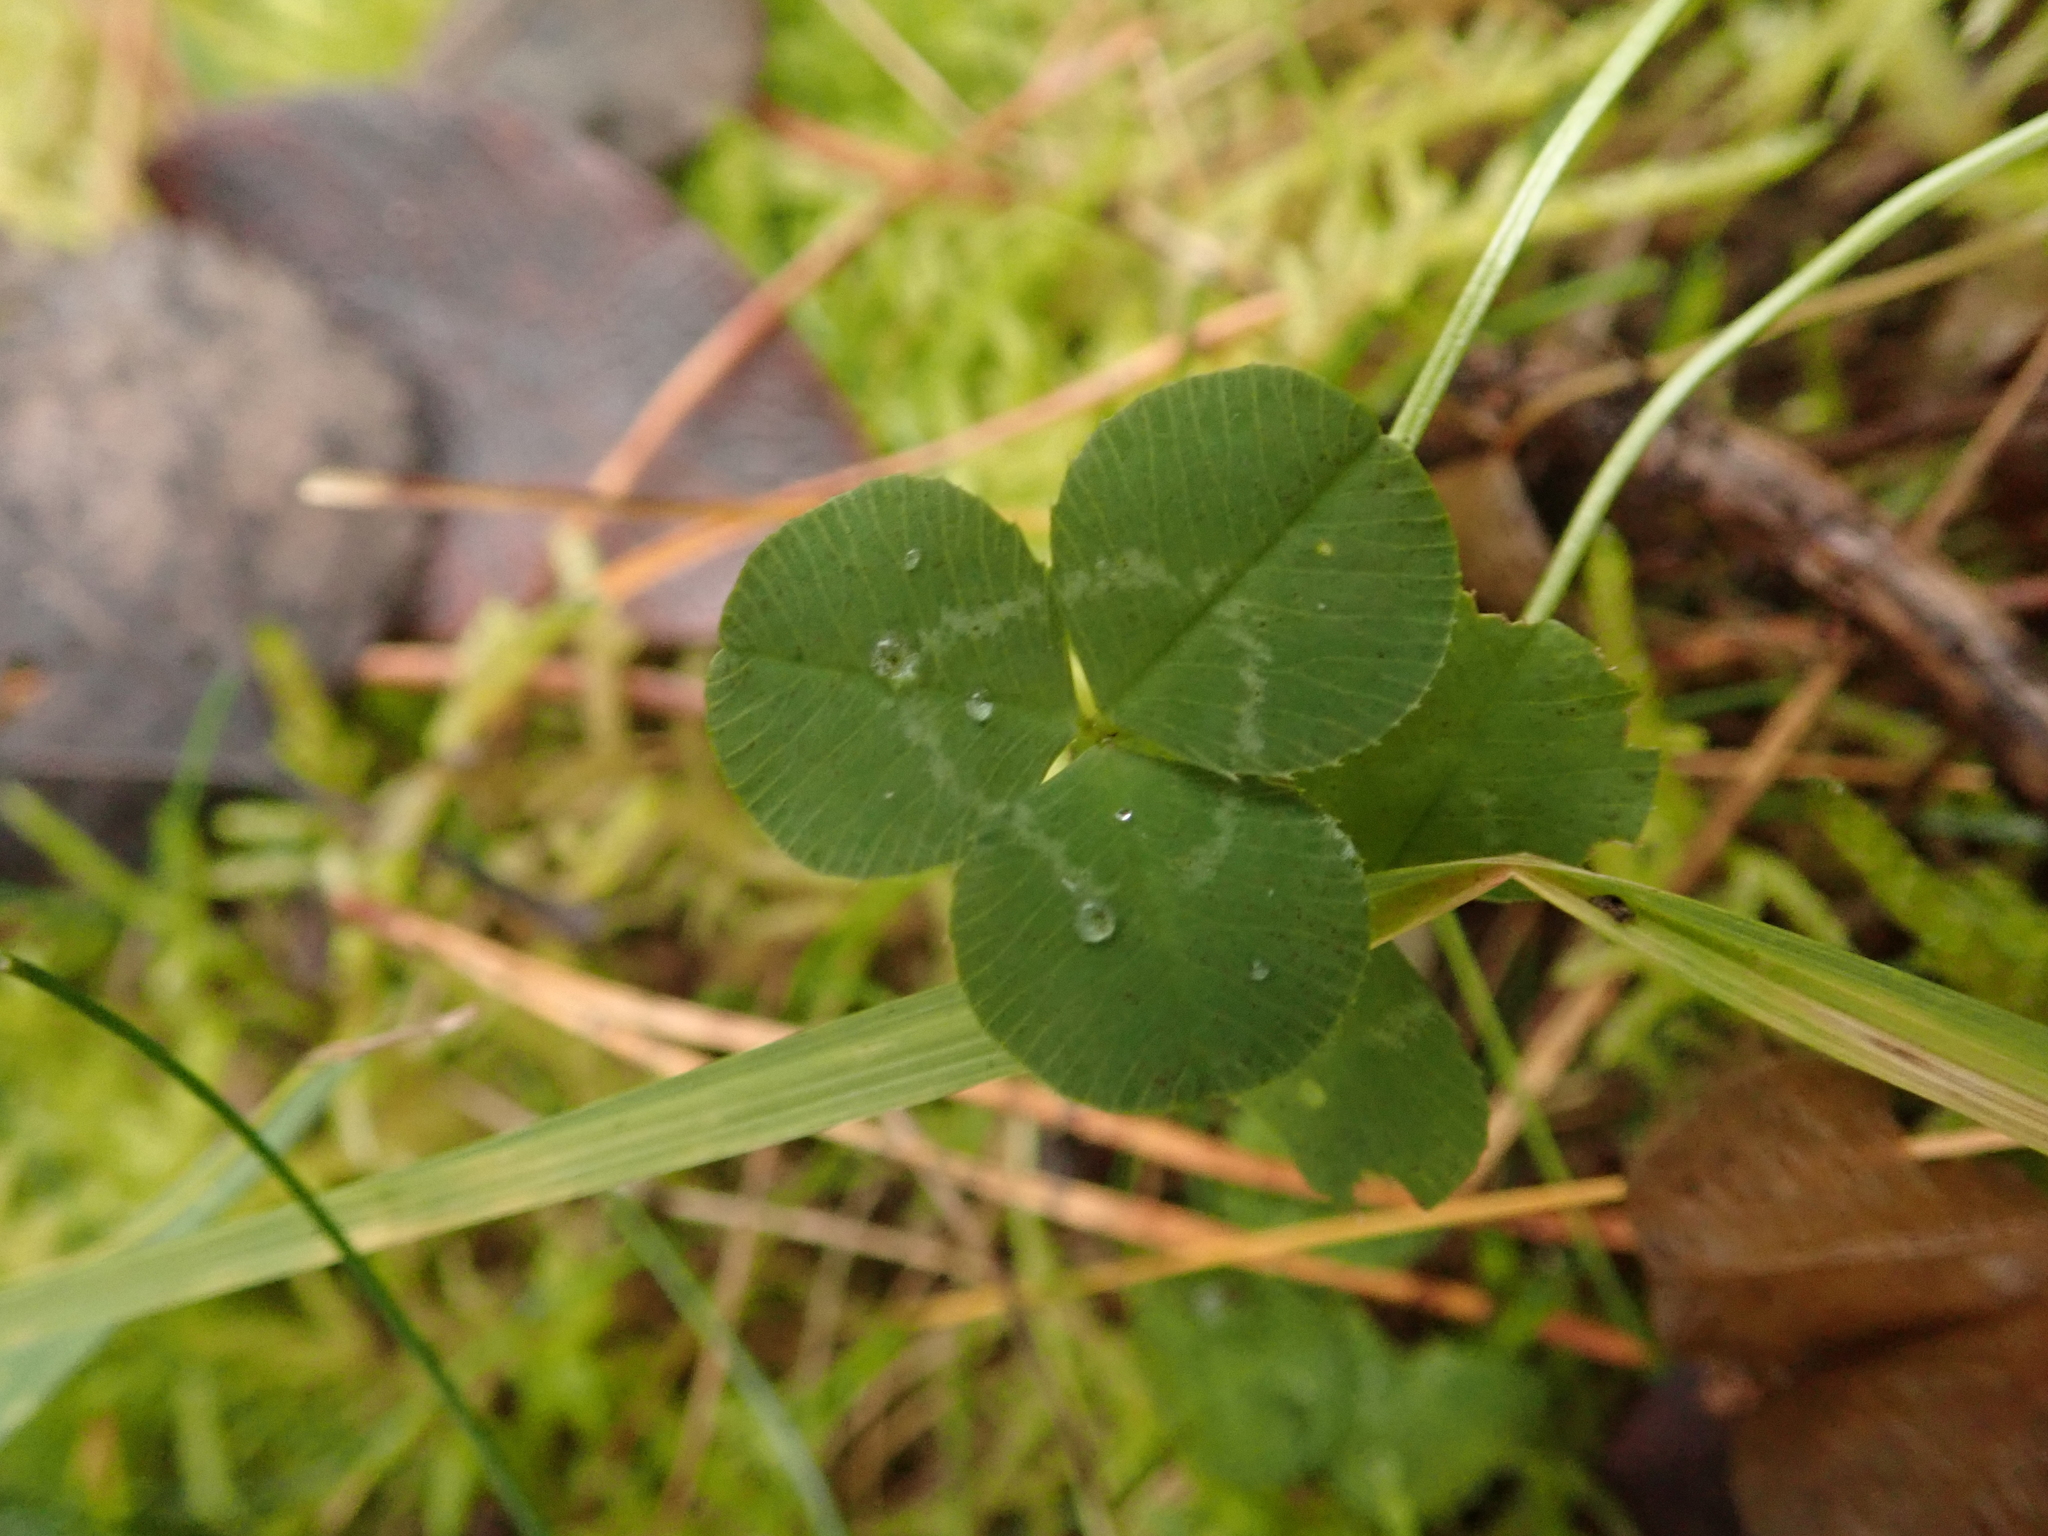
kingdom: Plantae
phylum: Tracheophyta
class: Magnoliopsida
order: Fabales
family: Fabaceae
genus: Trifolium
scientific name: Trifolium repens
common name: White clover
